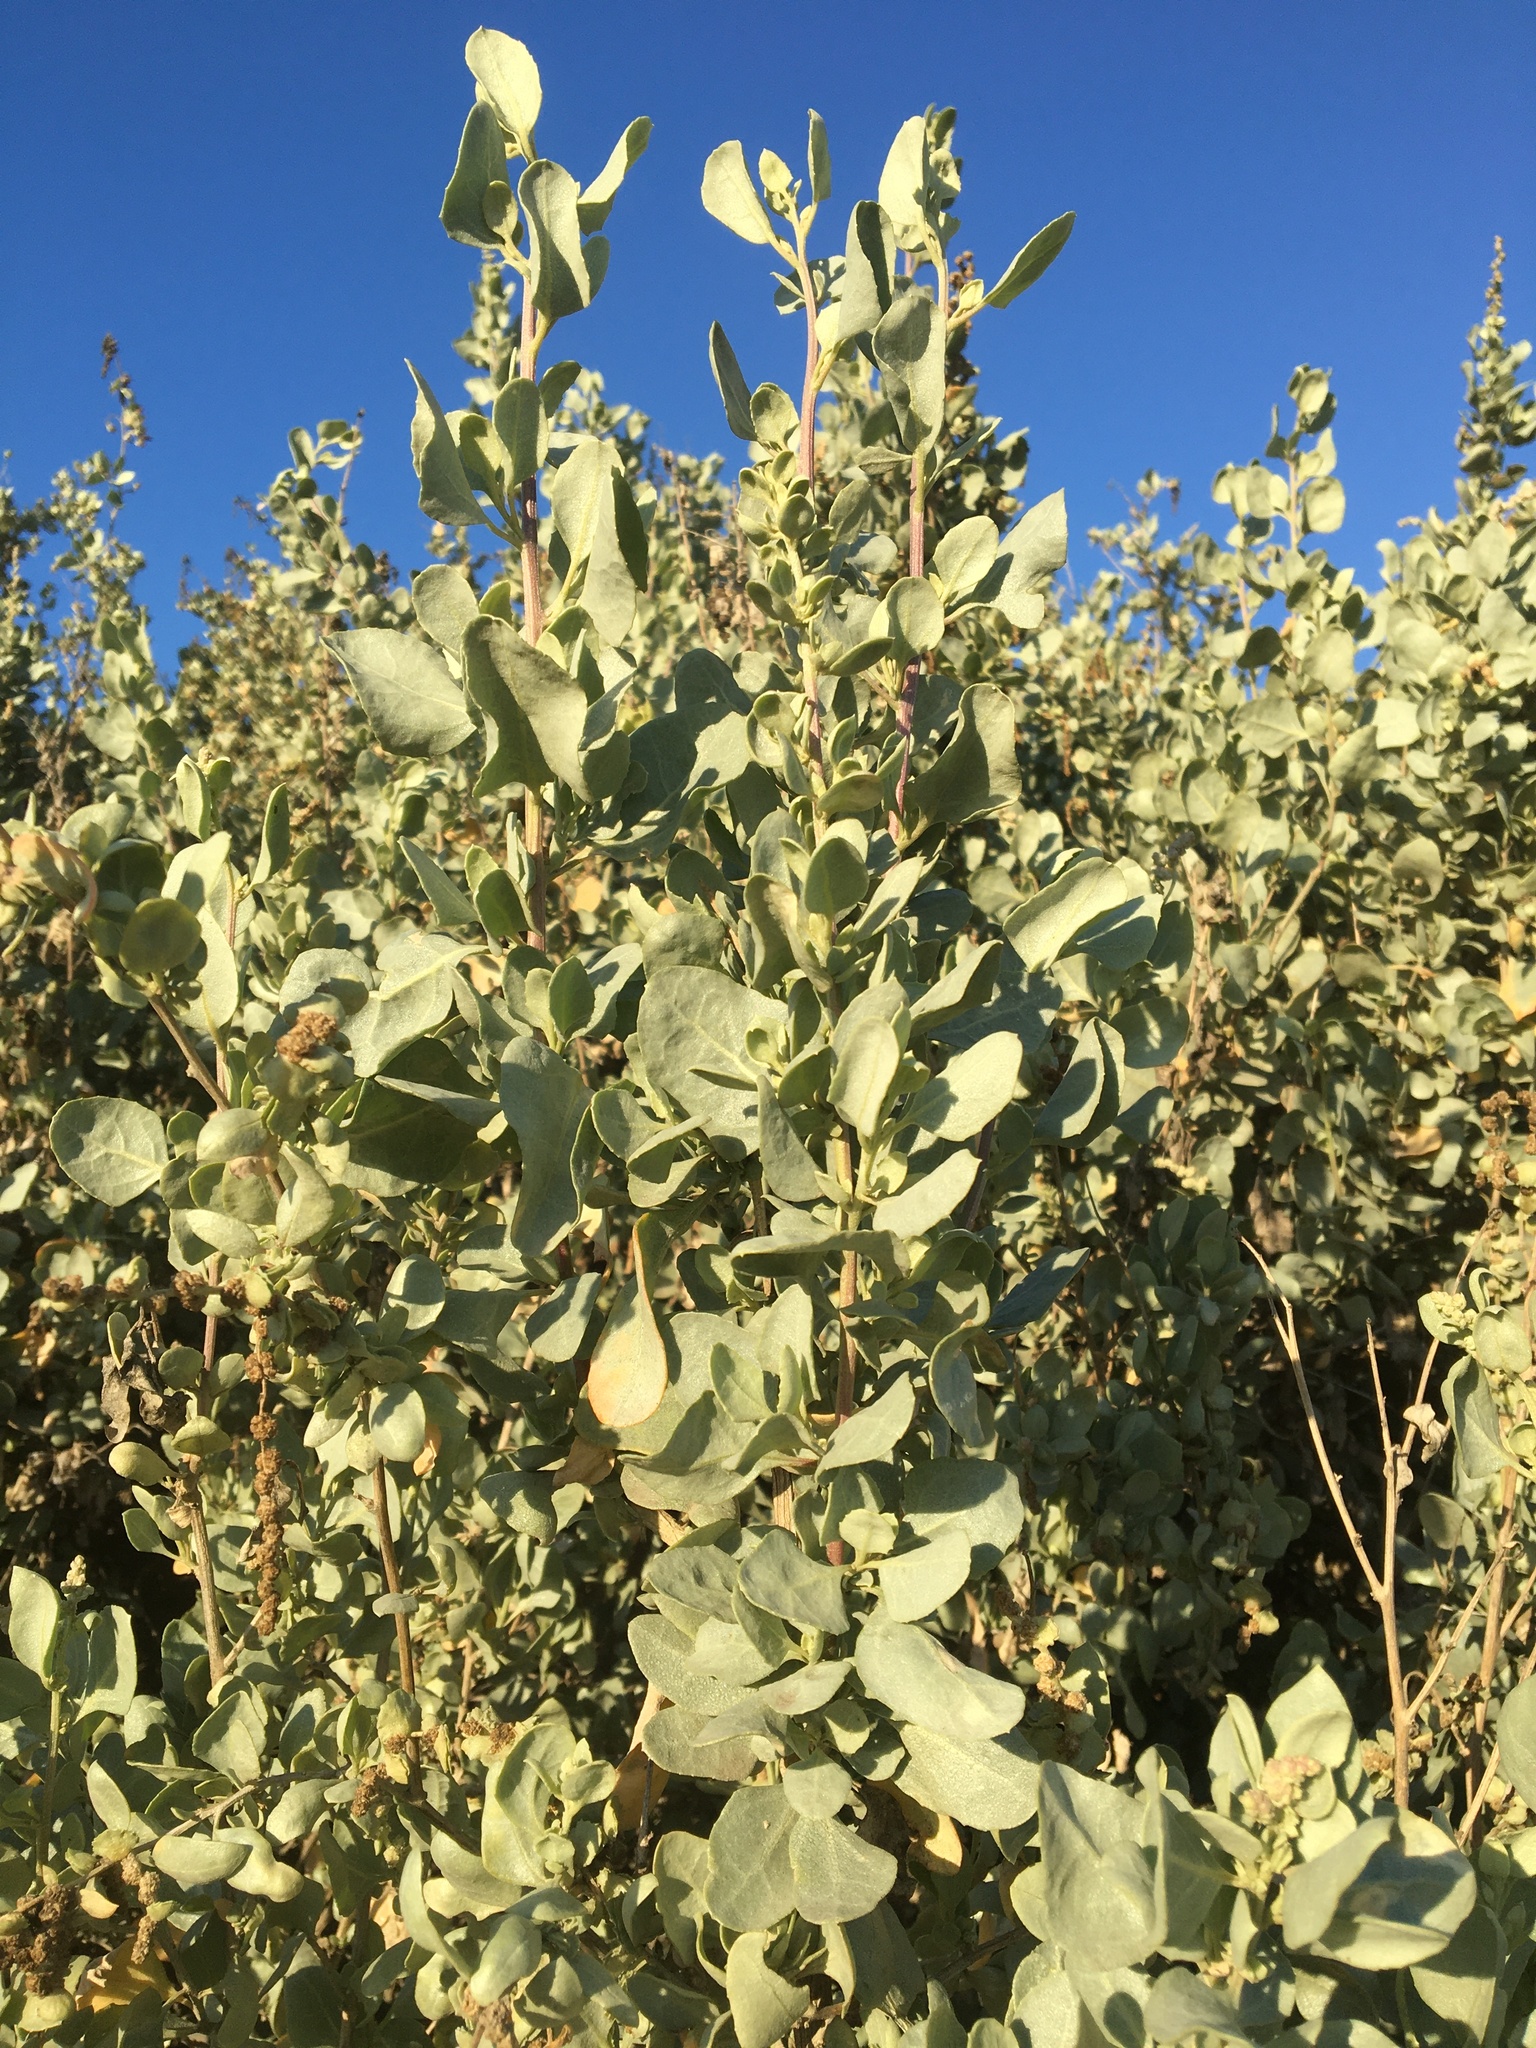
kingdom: Plantae
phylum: Tracheophyta
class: Magnoliopsida
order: Caryophyllales
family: Amaranthaceae
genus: Atriplex
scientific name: Atriplex lentiformis
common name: Big saltbush
